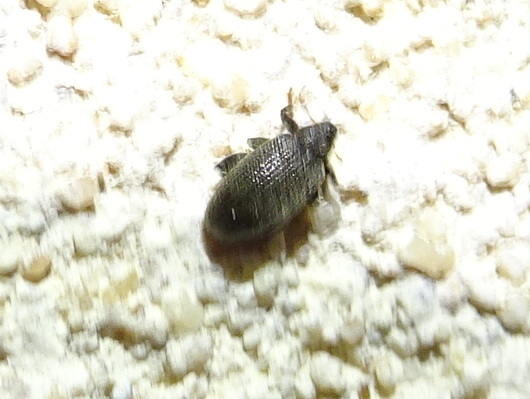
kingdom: Animalia
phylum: Arthropoda
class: Insecta
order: Coleoptera
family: Curculionidae
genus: Orchestes
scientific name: Orchestes fagi
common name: Beech leaf miner
